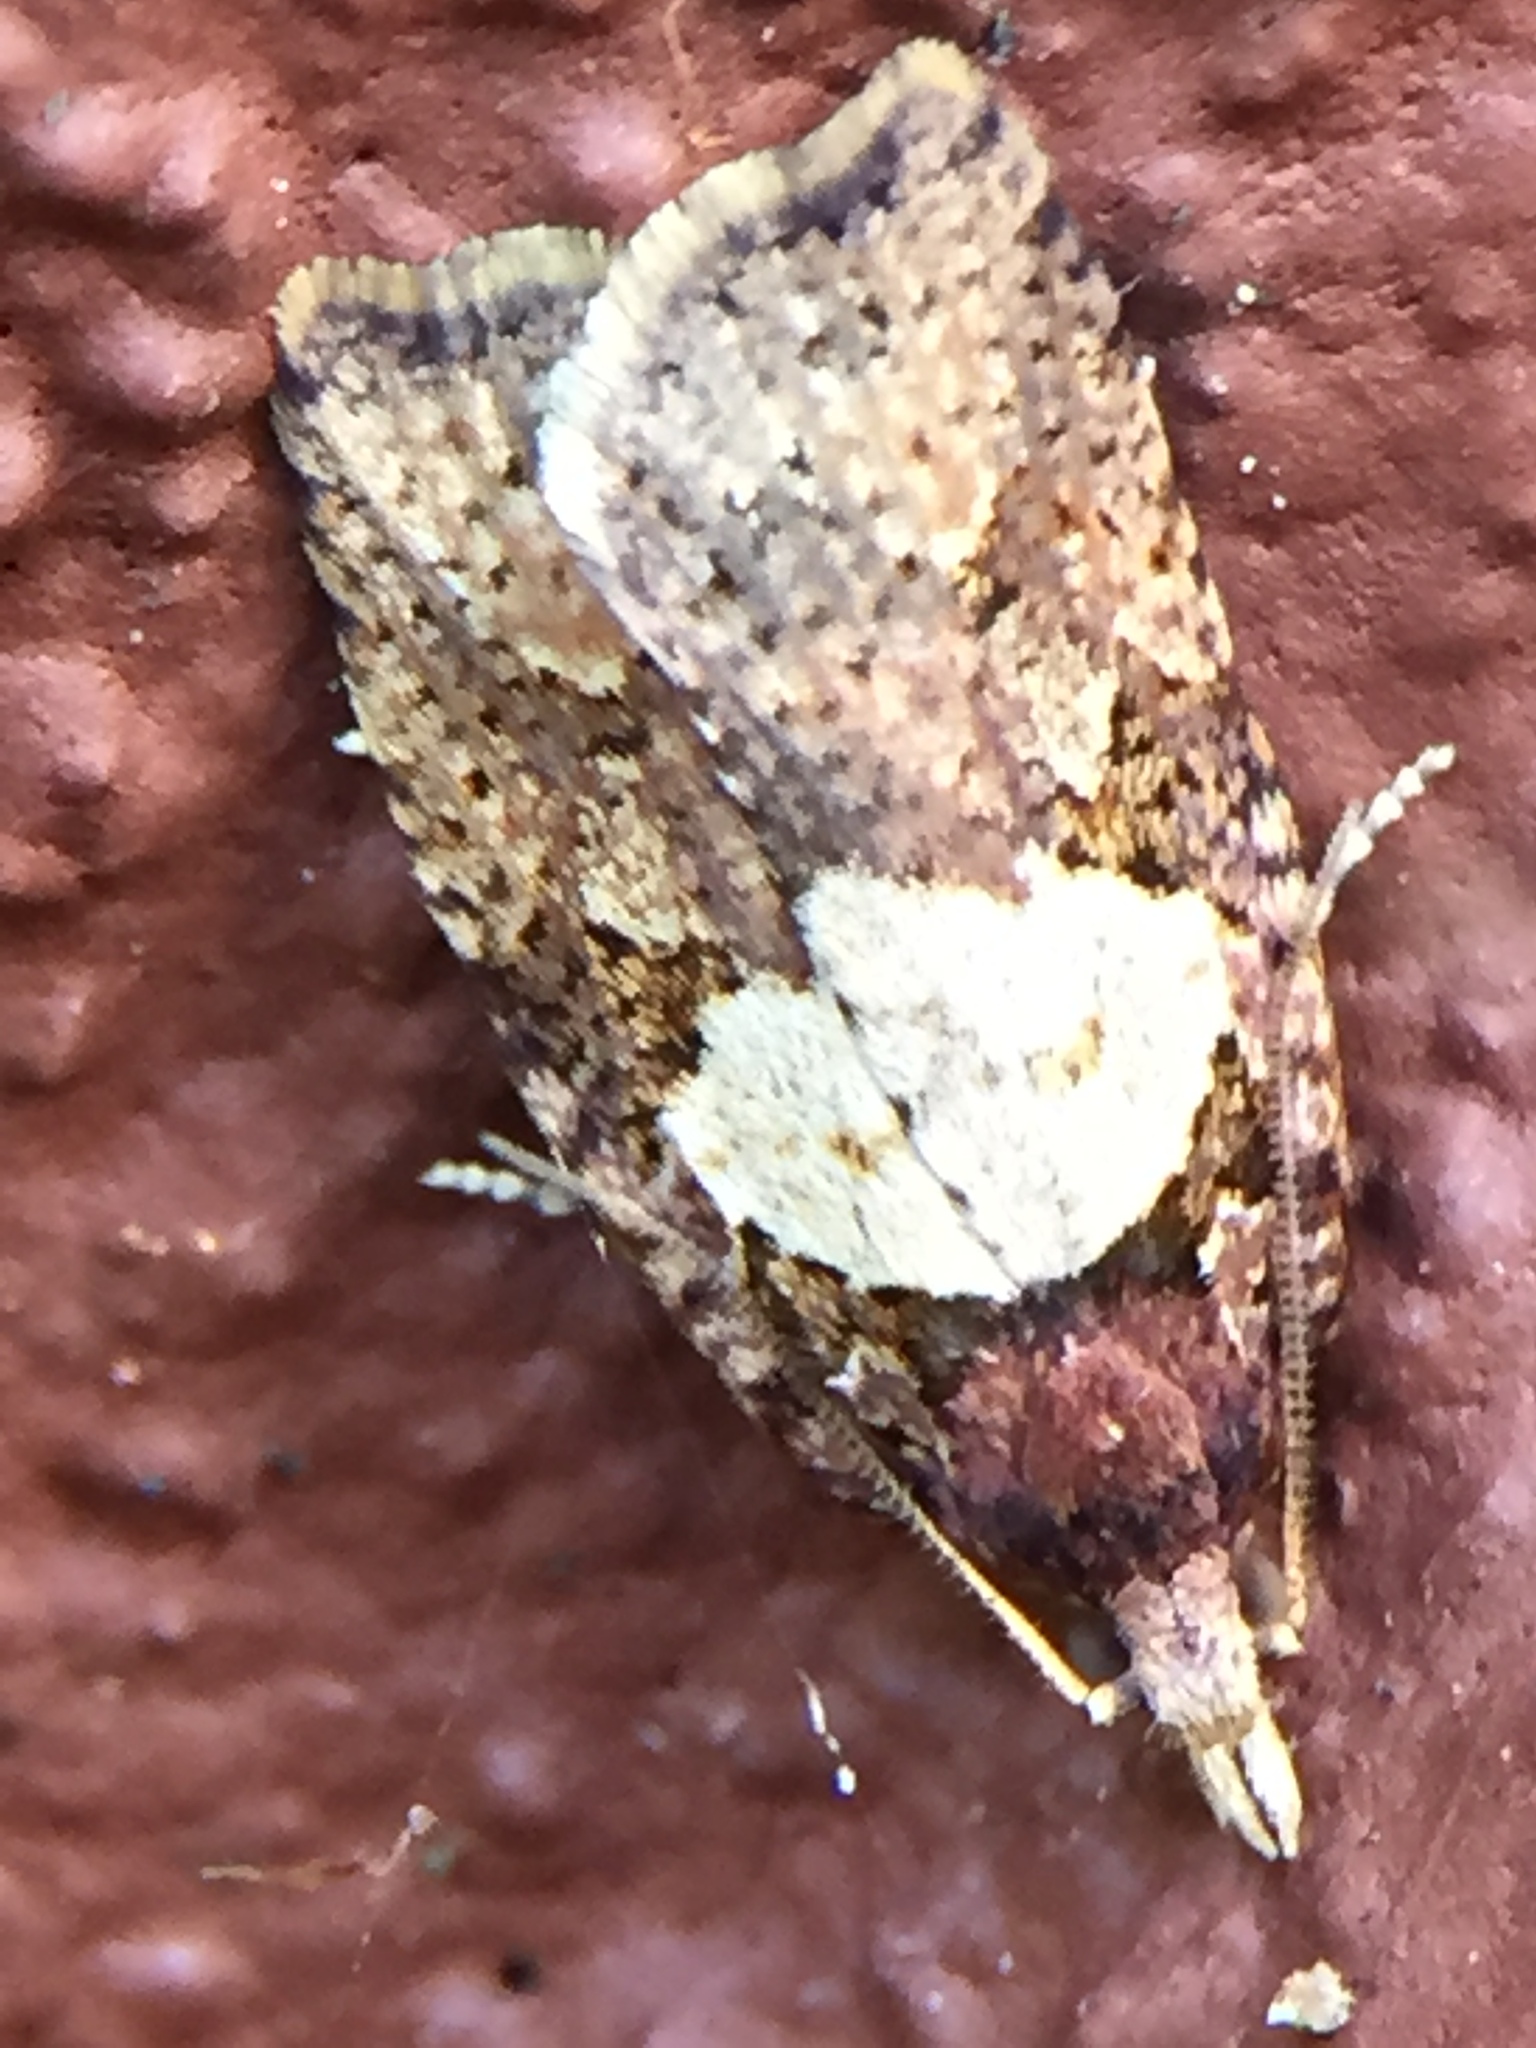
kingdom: Animalia
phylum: Arthropoda
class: Insecta
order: Lepidoptera
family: Tortricidae
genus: Ctenopseustis
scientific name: Ctenopseustis obliquana
